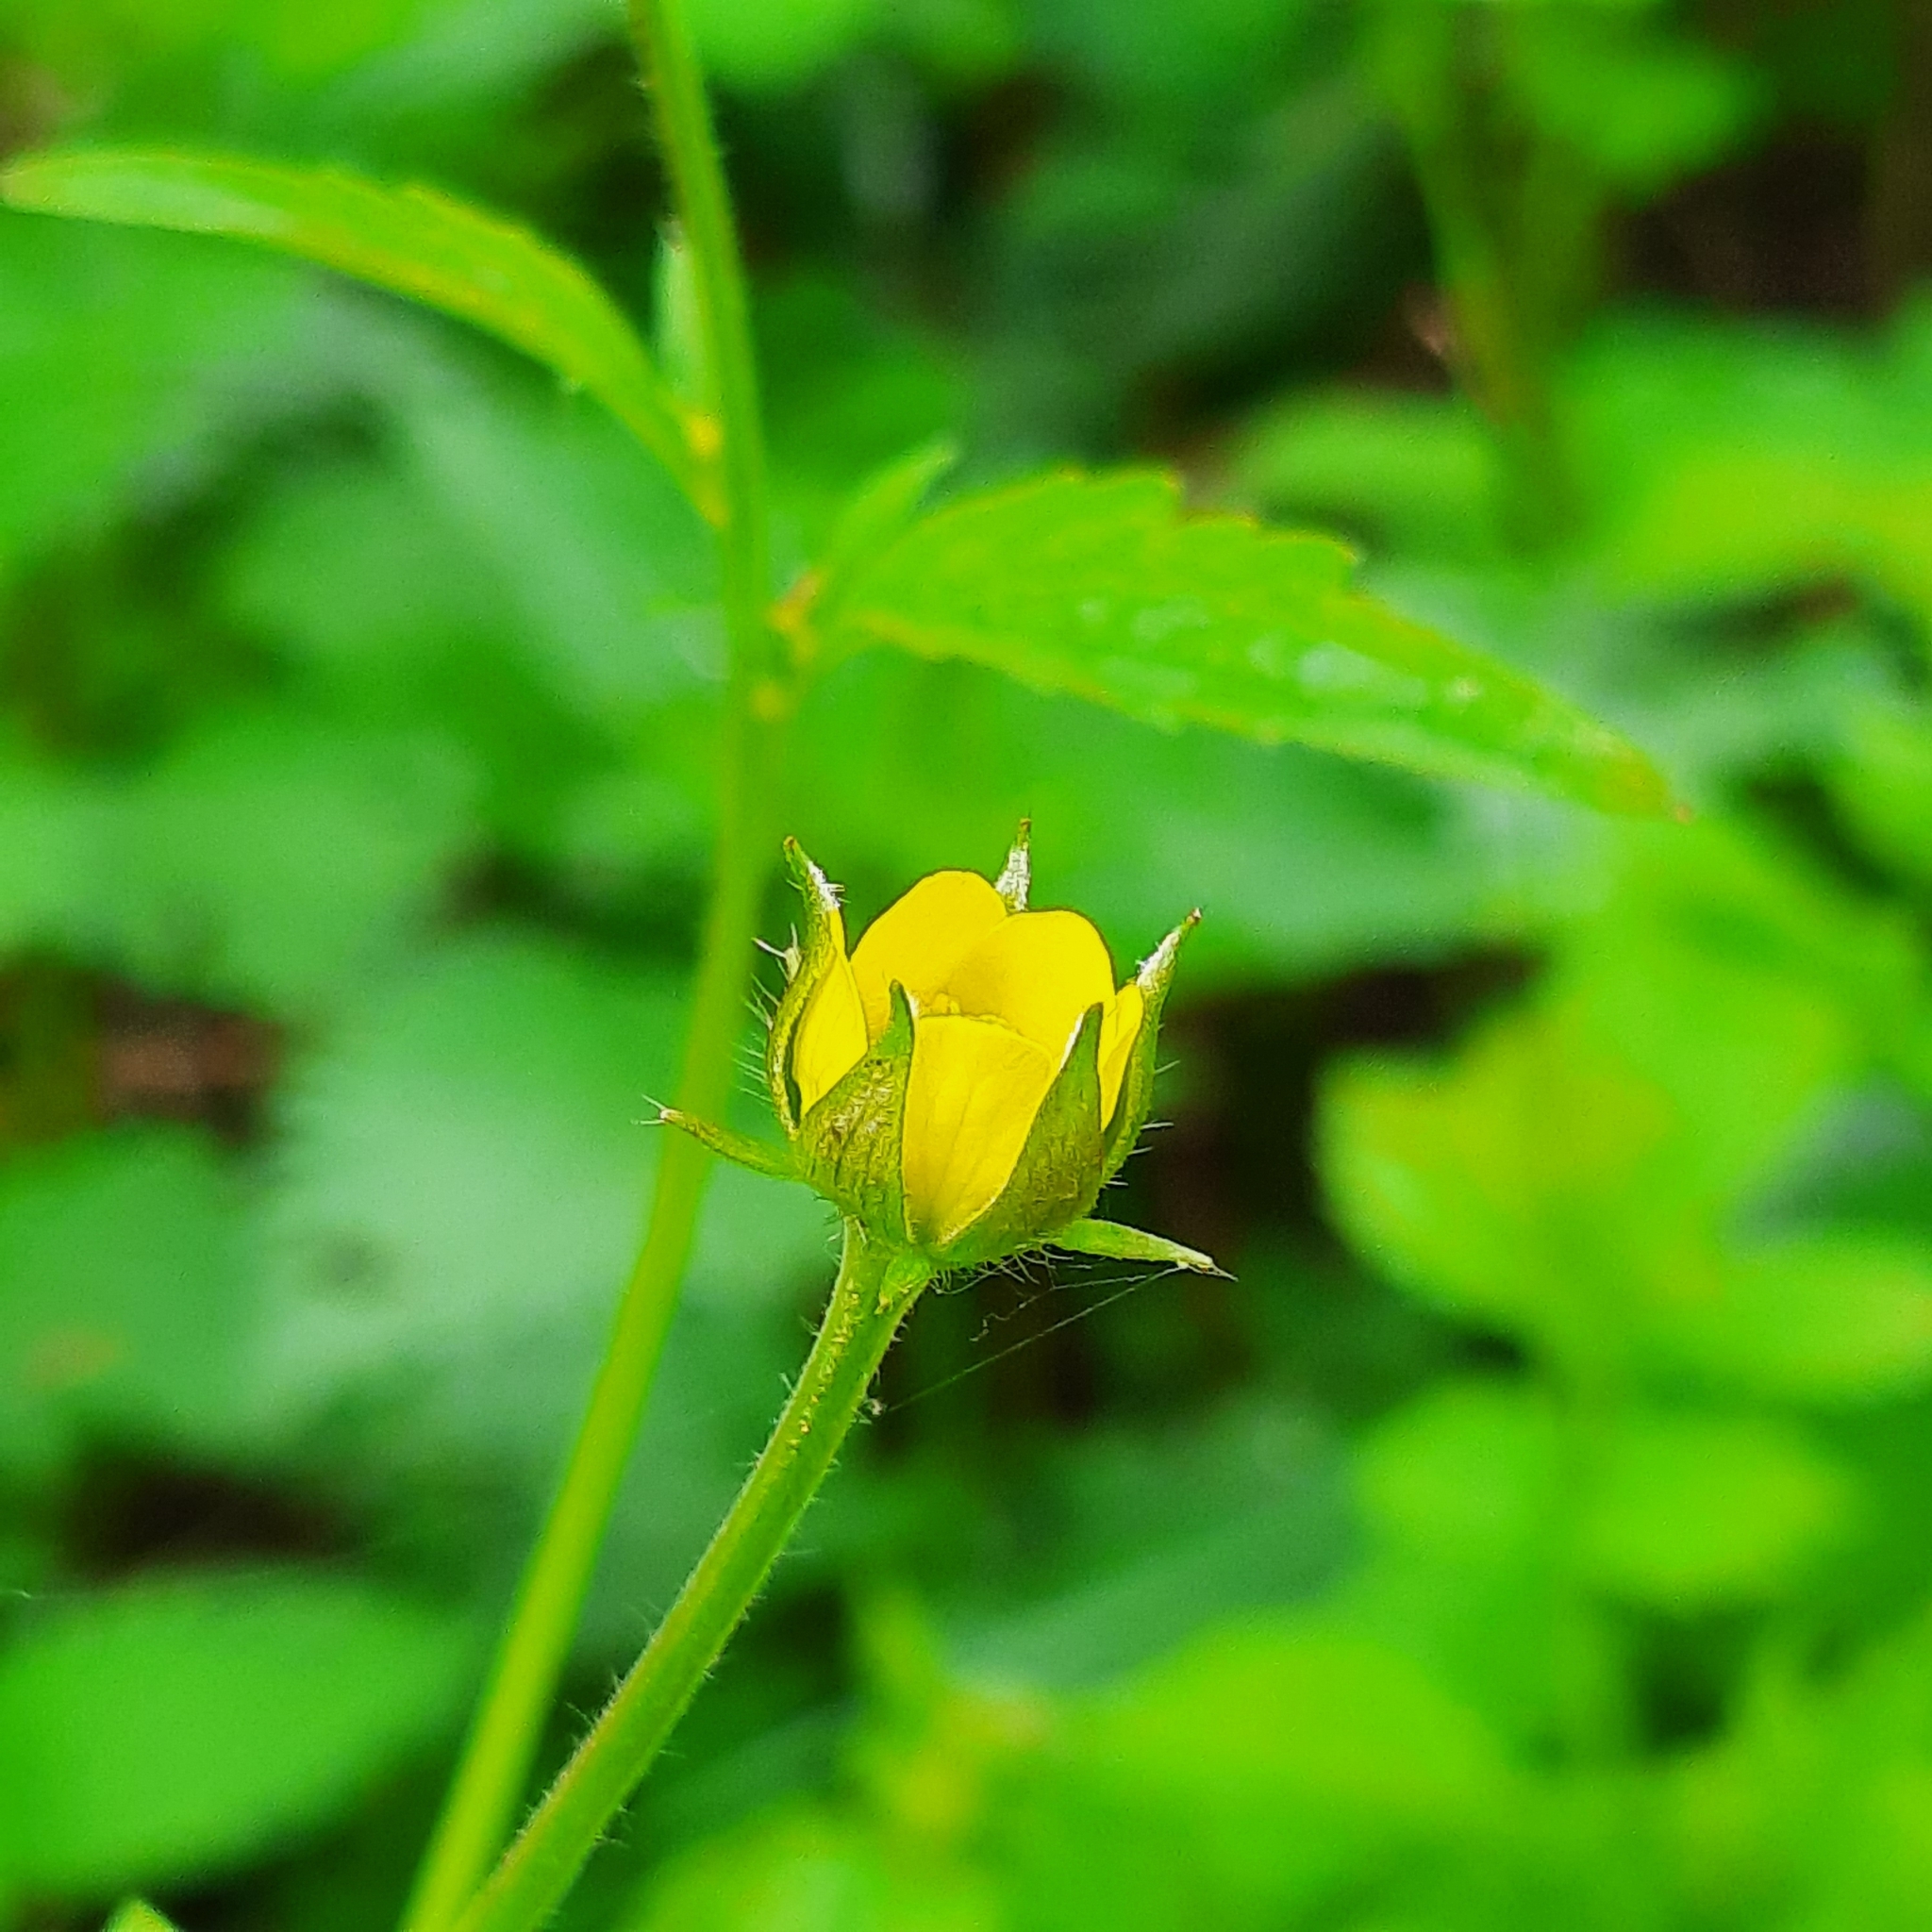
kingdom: Plantae
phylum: Tracheophyta
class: Magnoliopsida
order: Rosales
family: Rosaceae
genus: Geum
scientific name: Geum urbanum
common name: Wood avens
